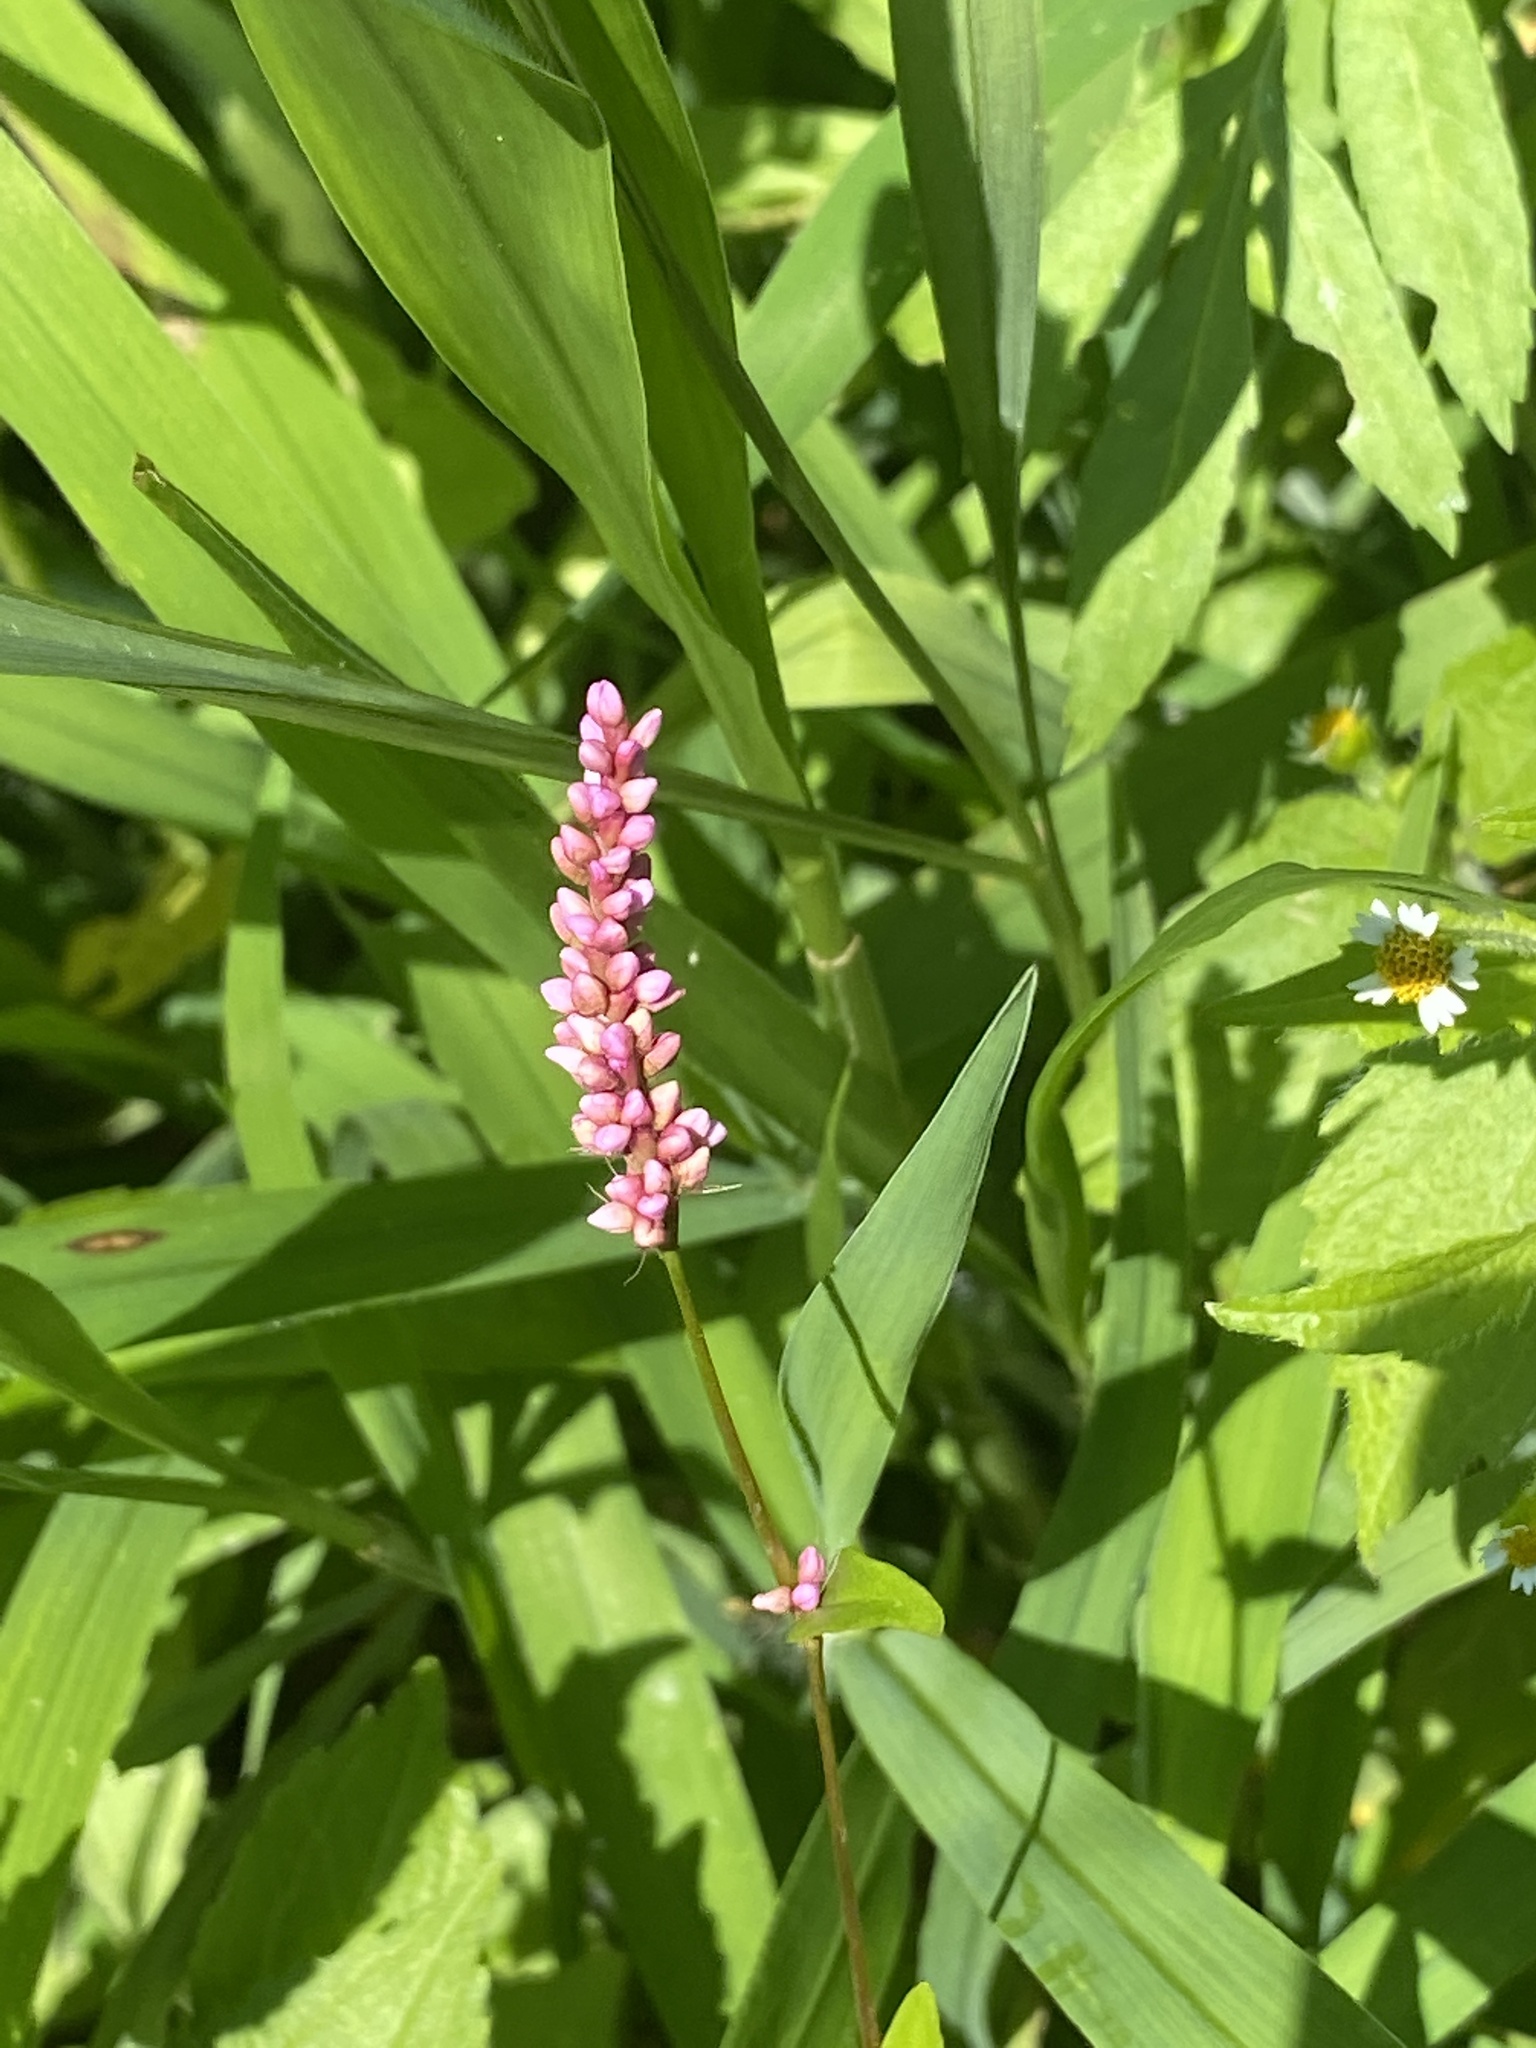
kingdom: Plantae
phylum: Tracheophyta
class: Magnoliopsida
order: Caryophyllales
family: Polygonaceae
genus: Persicaria
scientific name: Persicaria longiseta
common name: Bristly lady's-thumb
